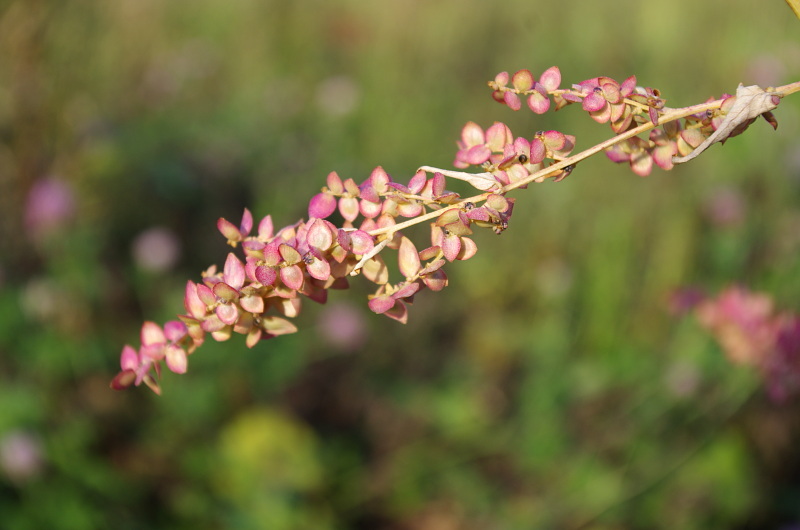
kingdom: Plantae
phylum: Tracheophyta
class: Magnoliopsida
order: Caryophyllales
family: Amaranthaceae
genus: Atriplex
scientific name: Atriplex sagittata
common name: Purple orache
